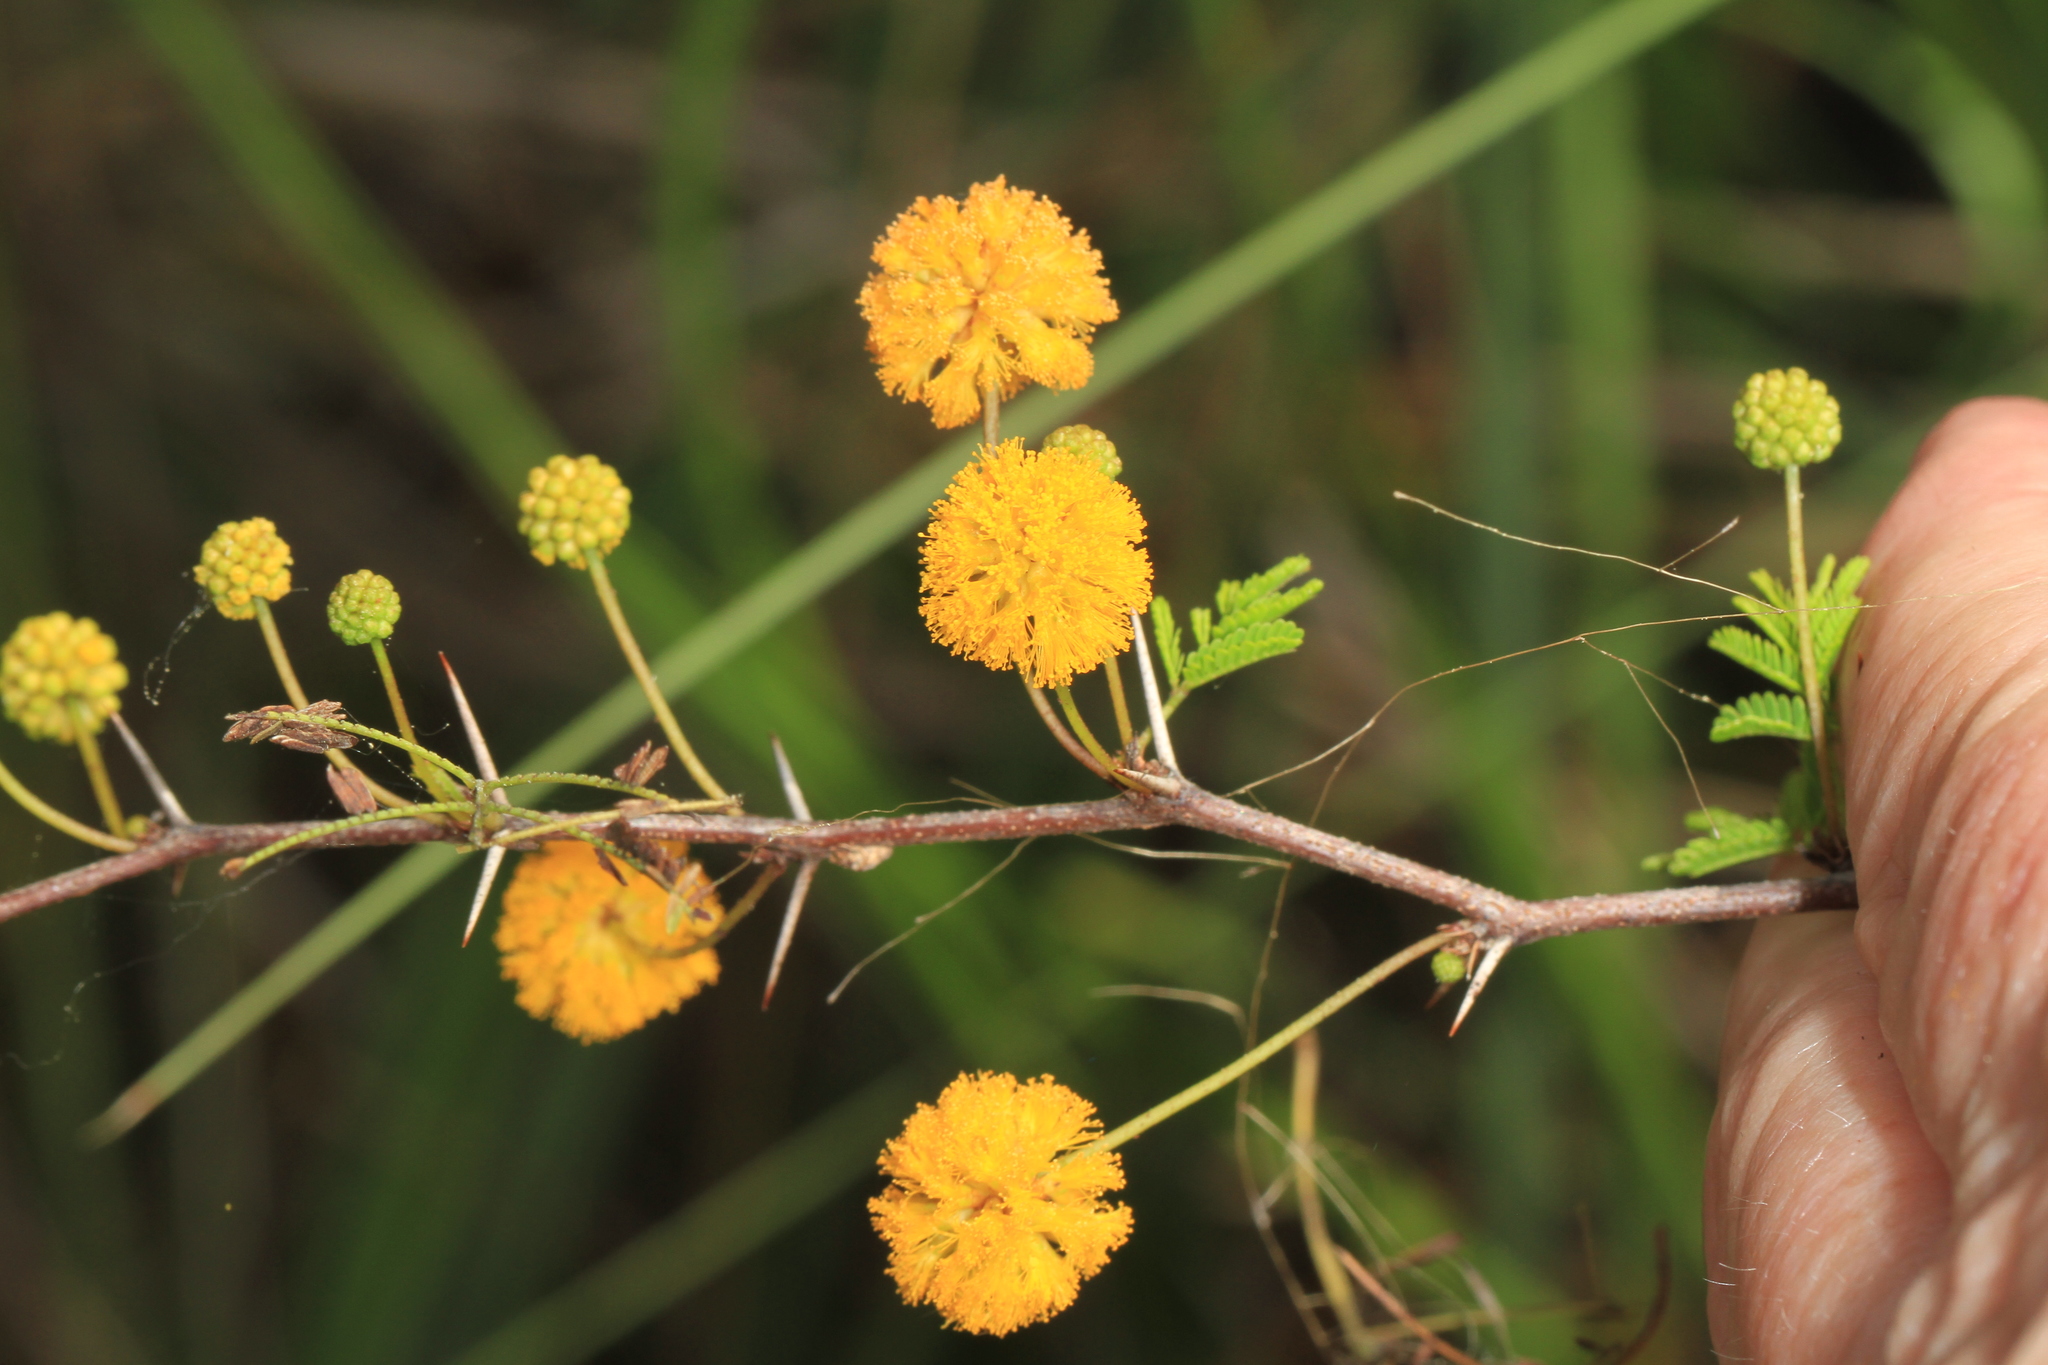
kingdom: Plantae
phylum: Tracheophyta
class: Magnoliopsida
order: Fabales
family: Fabaceae
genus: Vachellia
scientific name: Vachellia farnesiana
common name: Sweet acacia
